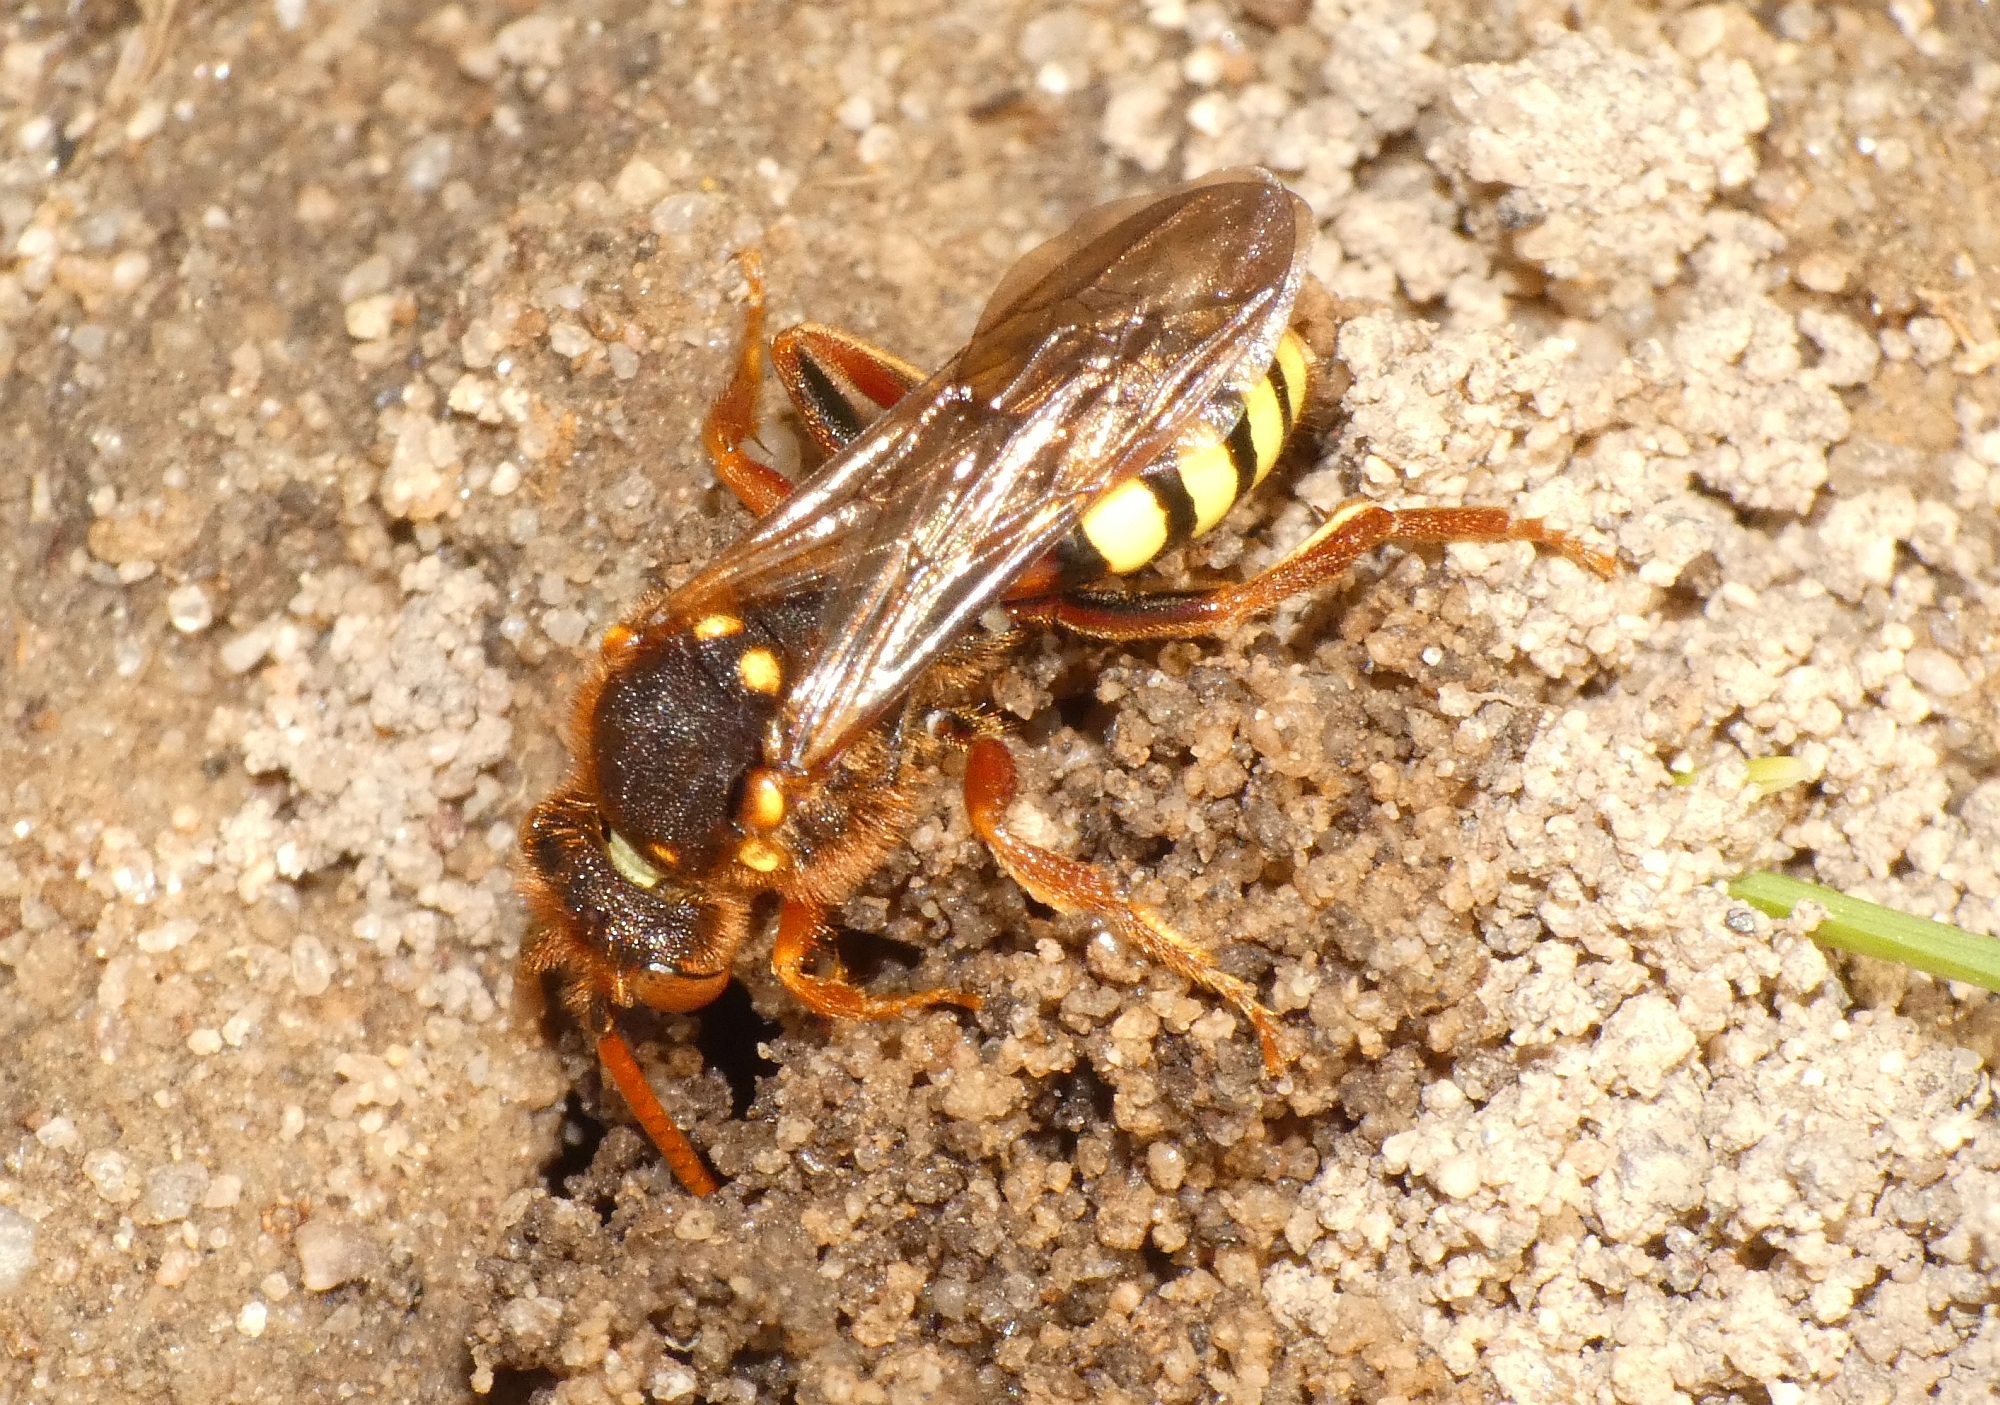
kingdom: Animalia
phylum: Arthropoda
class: Insecta
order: Hymenoptera
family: Apidae
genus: Nomada
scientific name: Nomada lathburiana
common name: Lathbury's nomad bee
